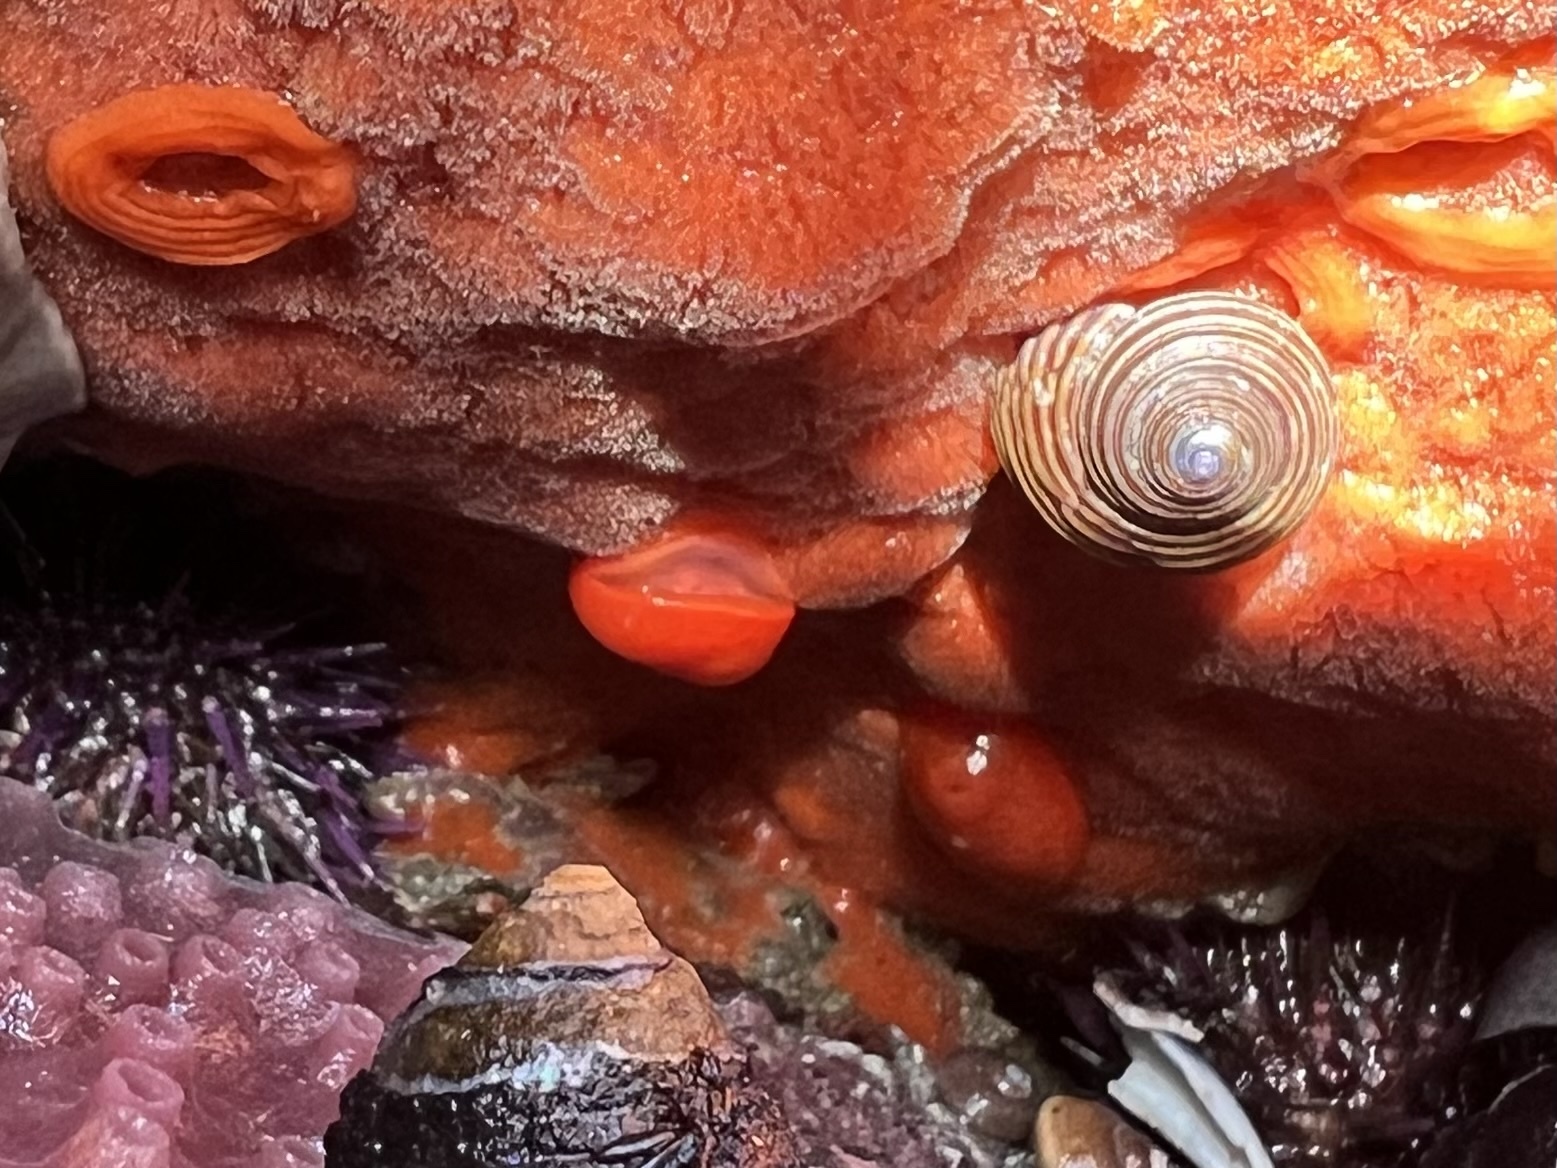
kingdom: Animalia
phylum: Mollusca
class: Gastropoda
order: Nudibranchia
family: Discodorididae
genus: Rostanga
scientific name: Rostanga pulchra
